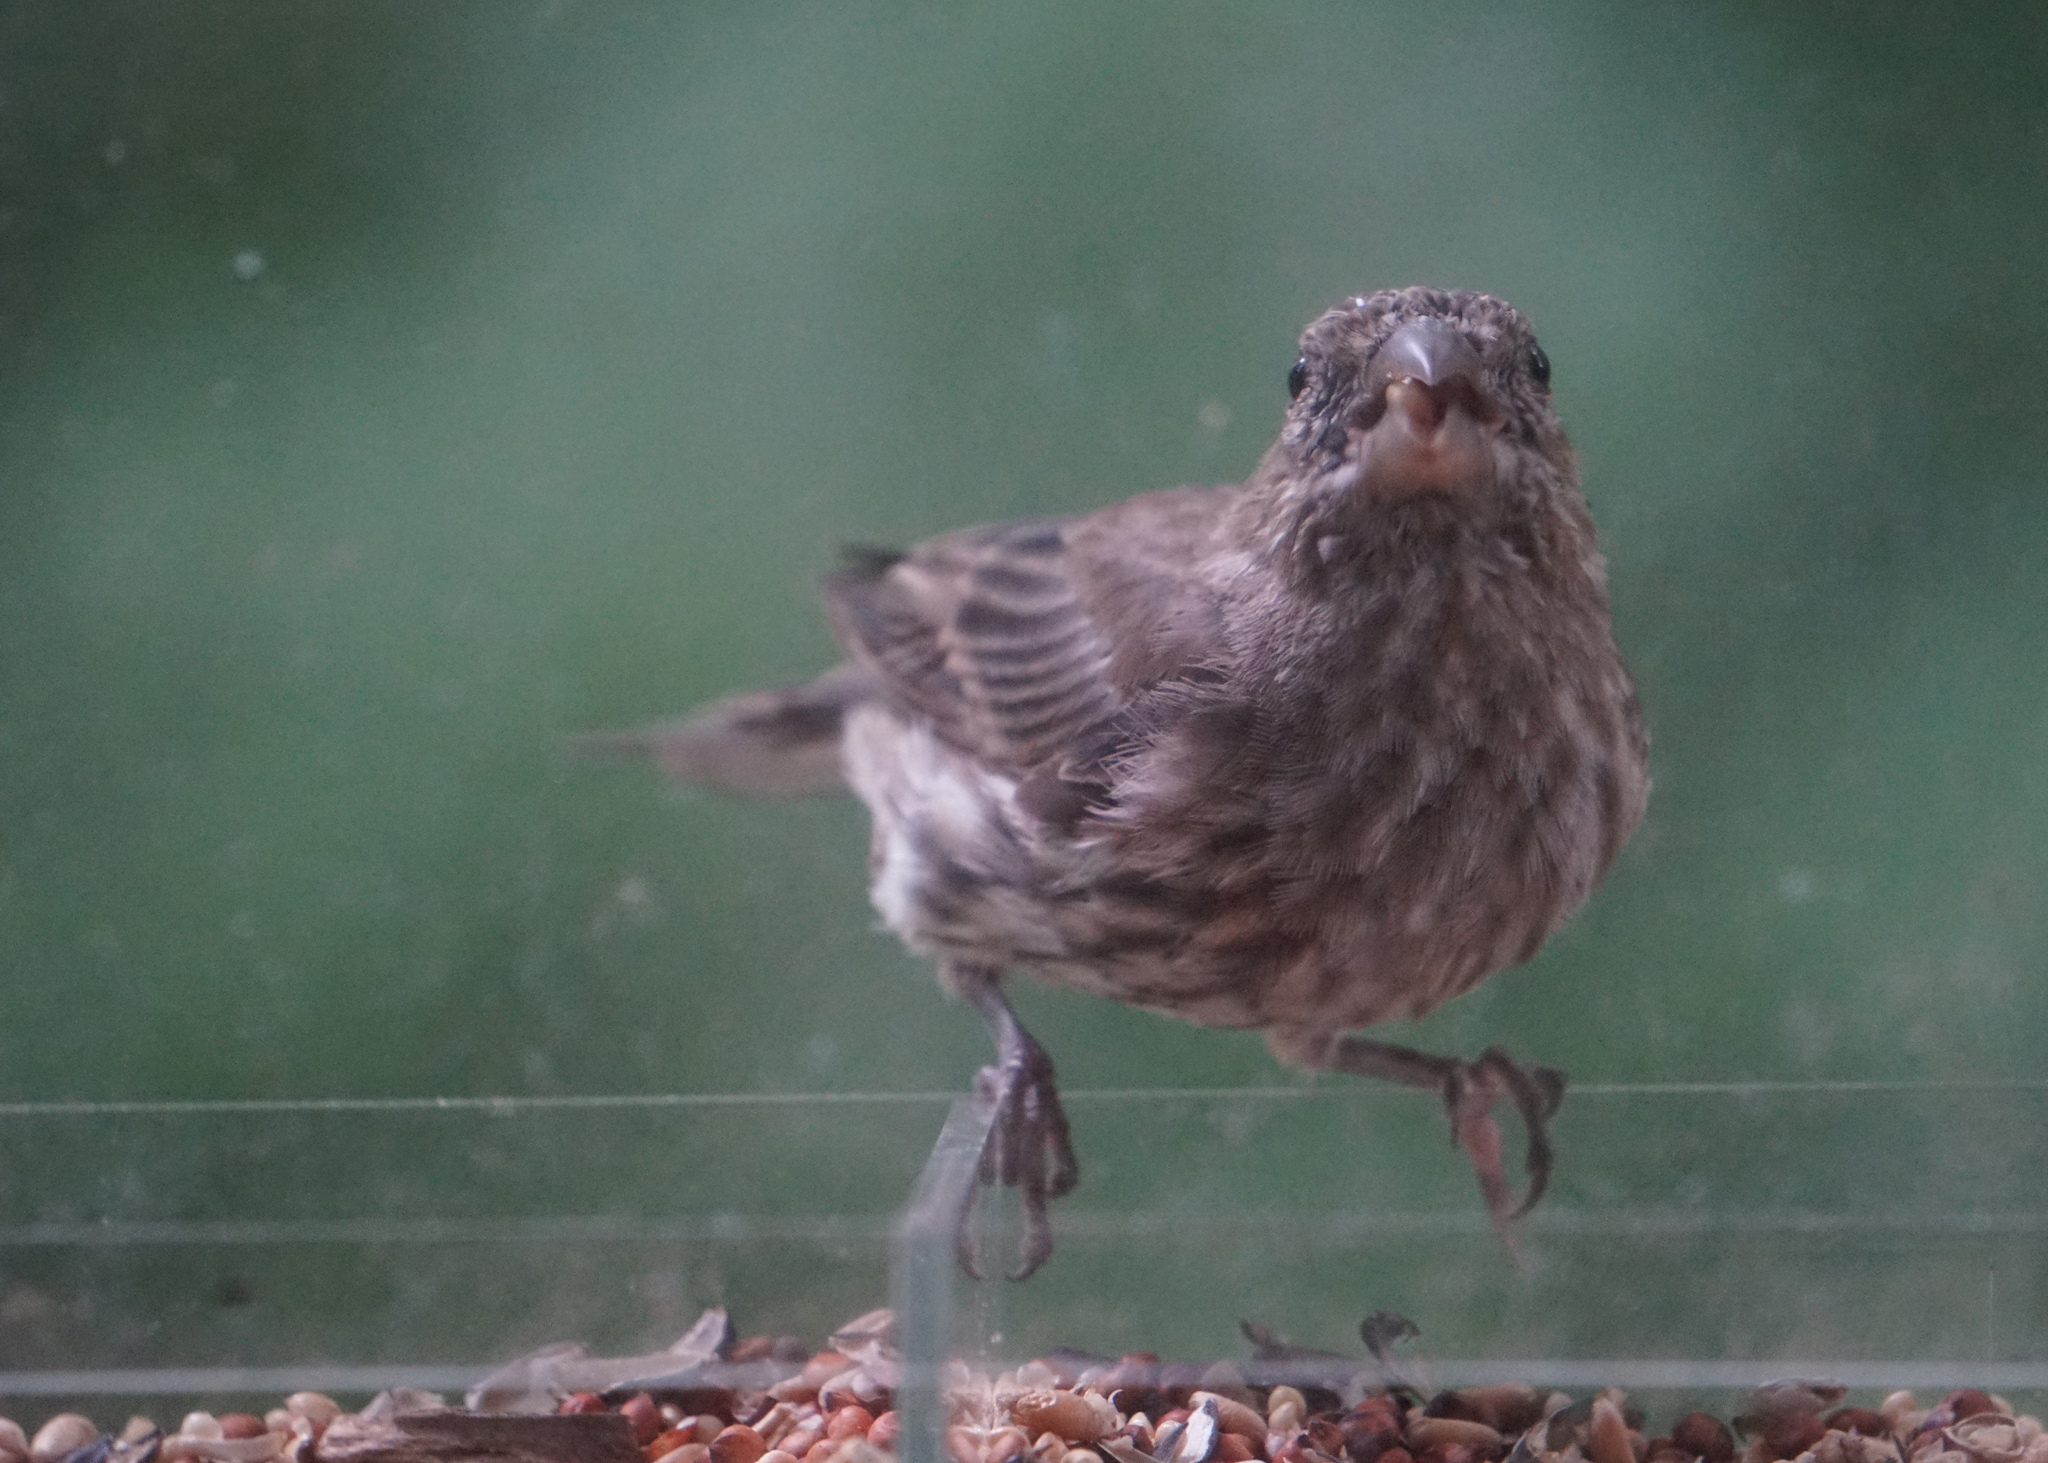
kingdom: Animalia
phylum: Chordata
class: Aves
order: Passeriformes
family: Fringillidae
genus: Haemorhous
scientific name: Haemorhous mexicanus
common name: House finch
